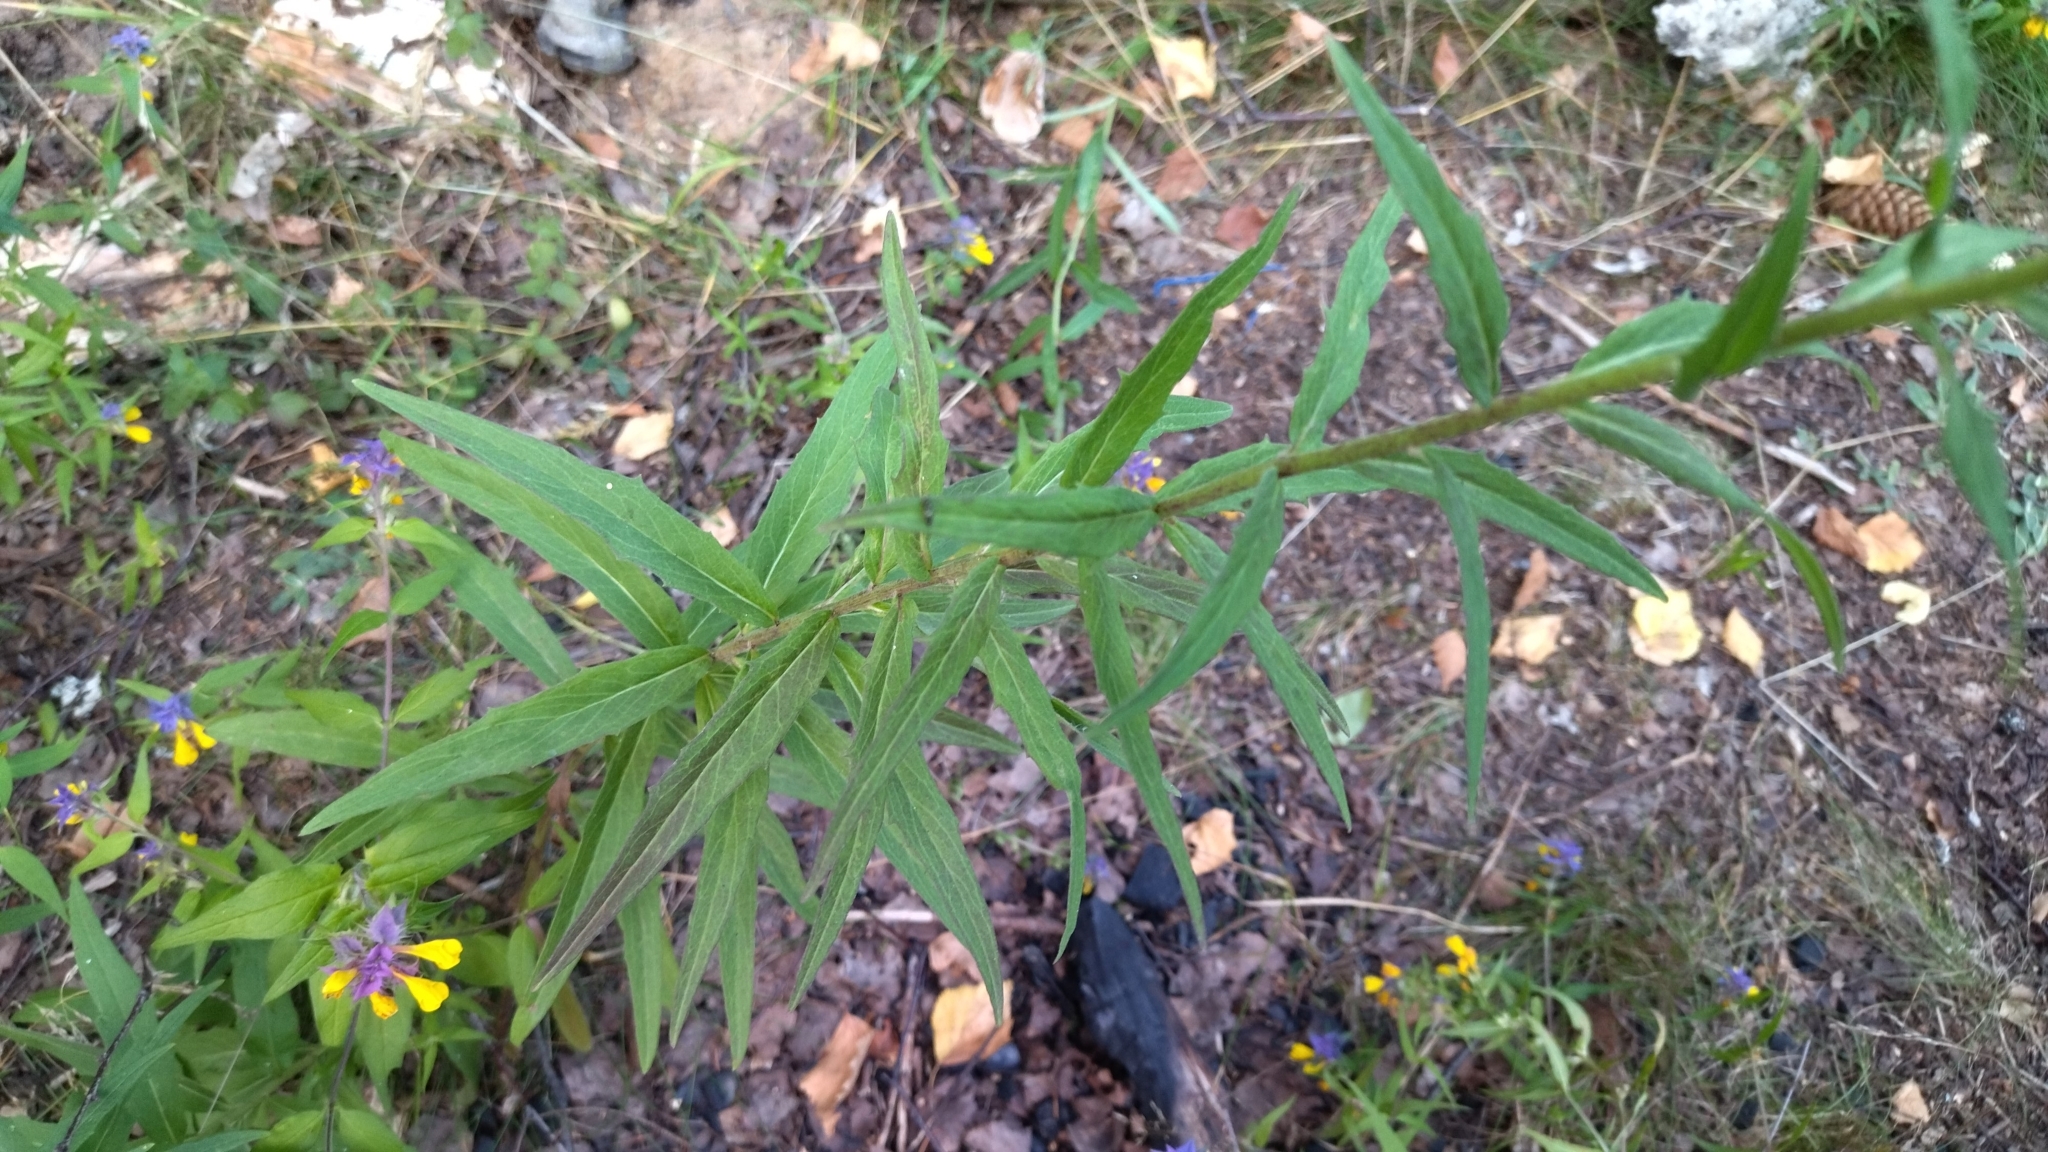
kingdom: Plantae
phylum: Tracheophyta
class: Magnoliopsida
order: Asterales
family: Asteraceae
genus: Hieracium
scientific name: Hieracium umbellatum
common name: Northern hawkweed
